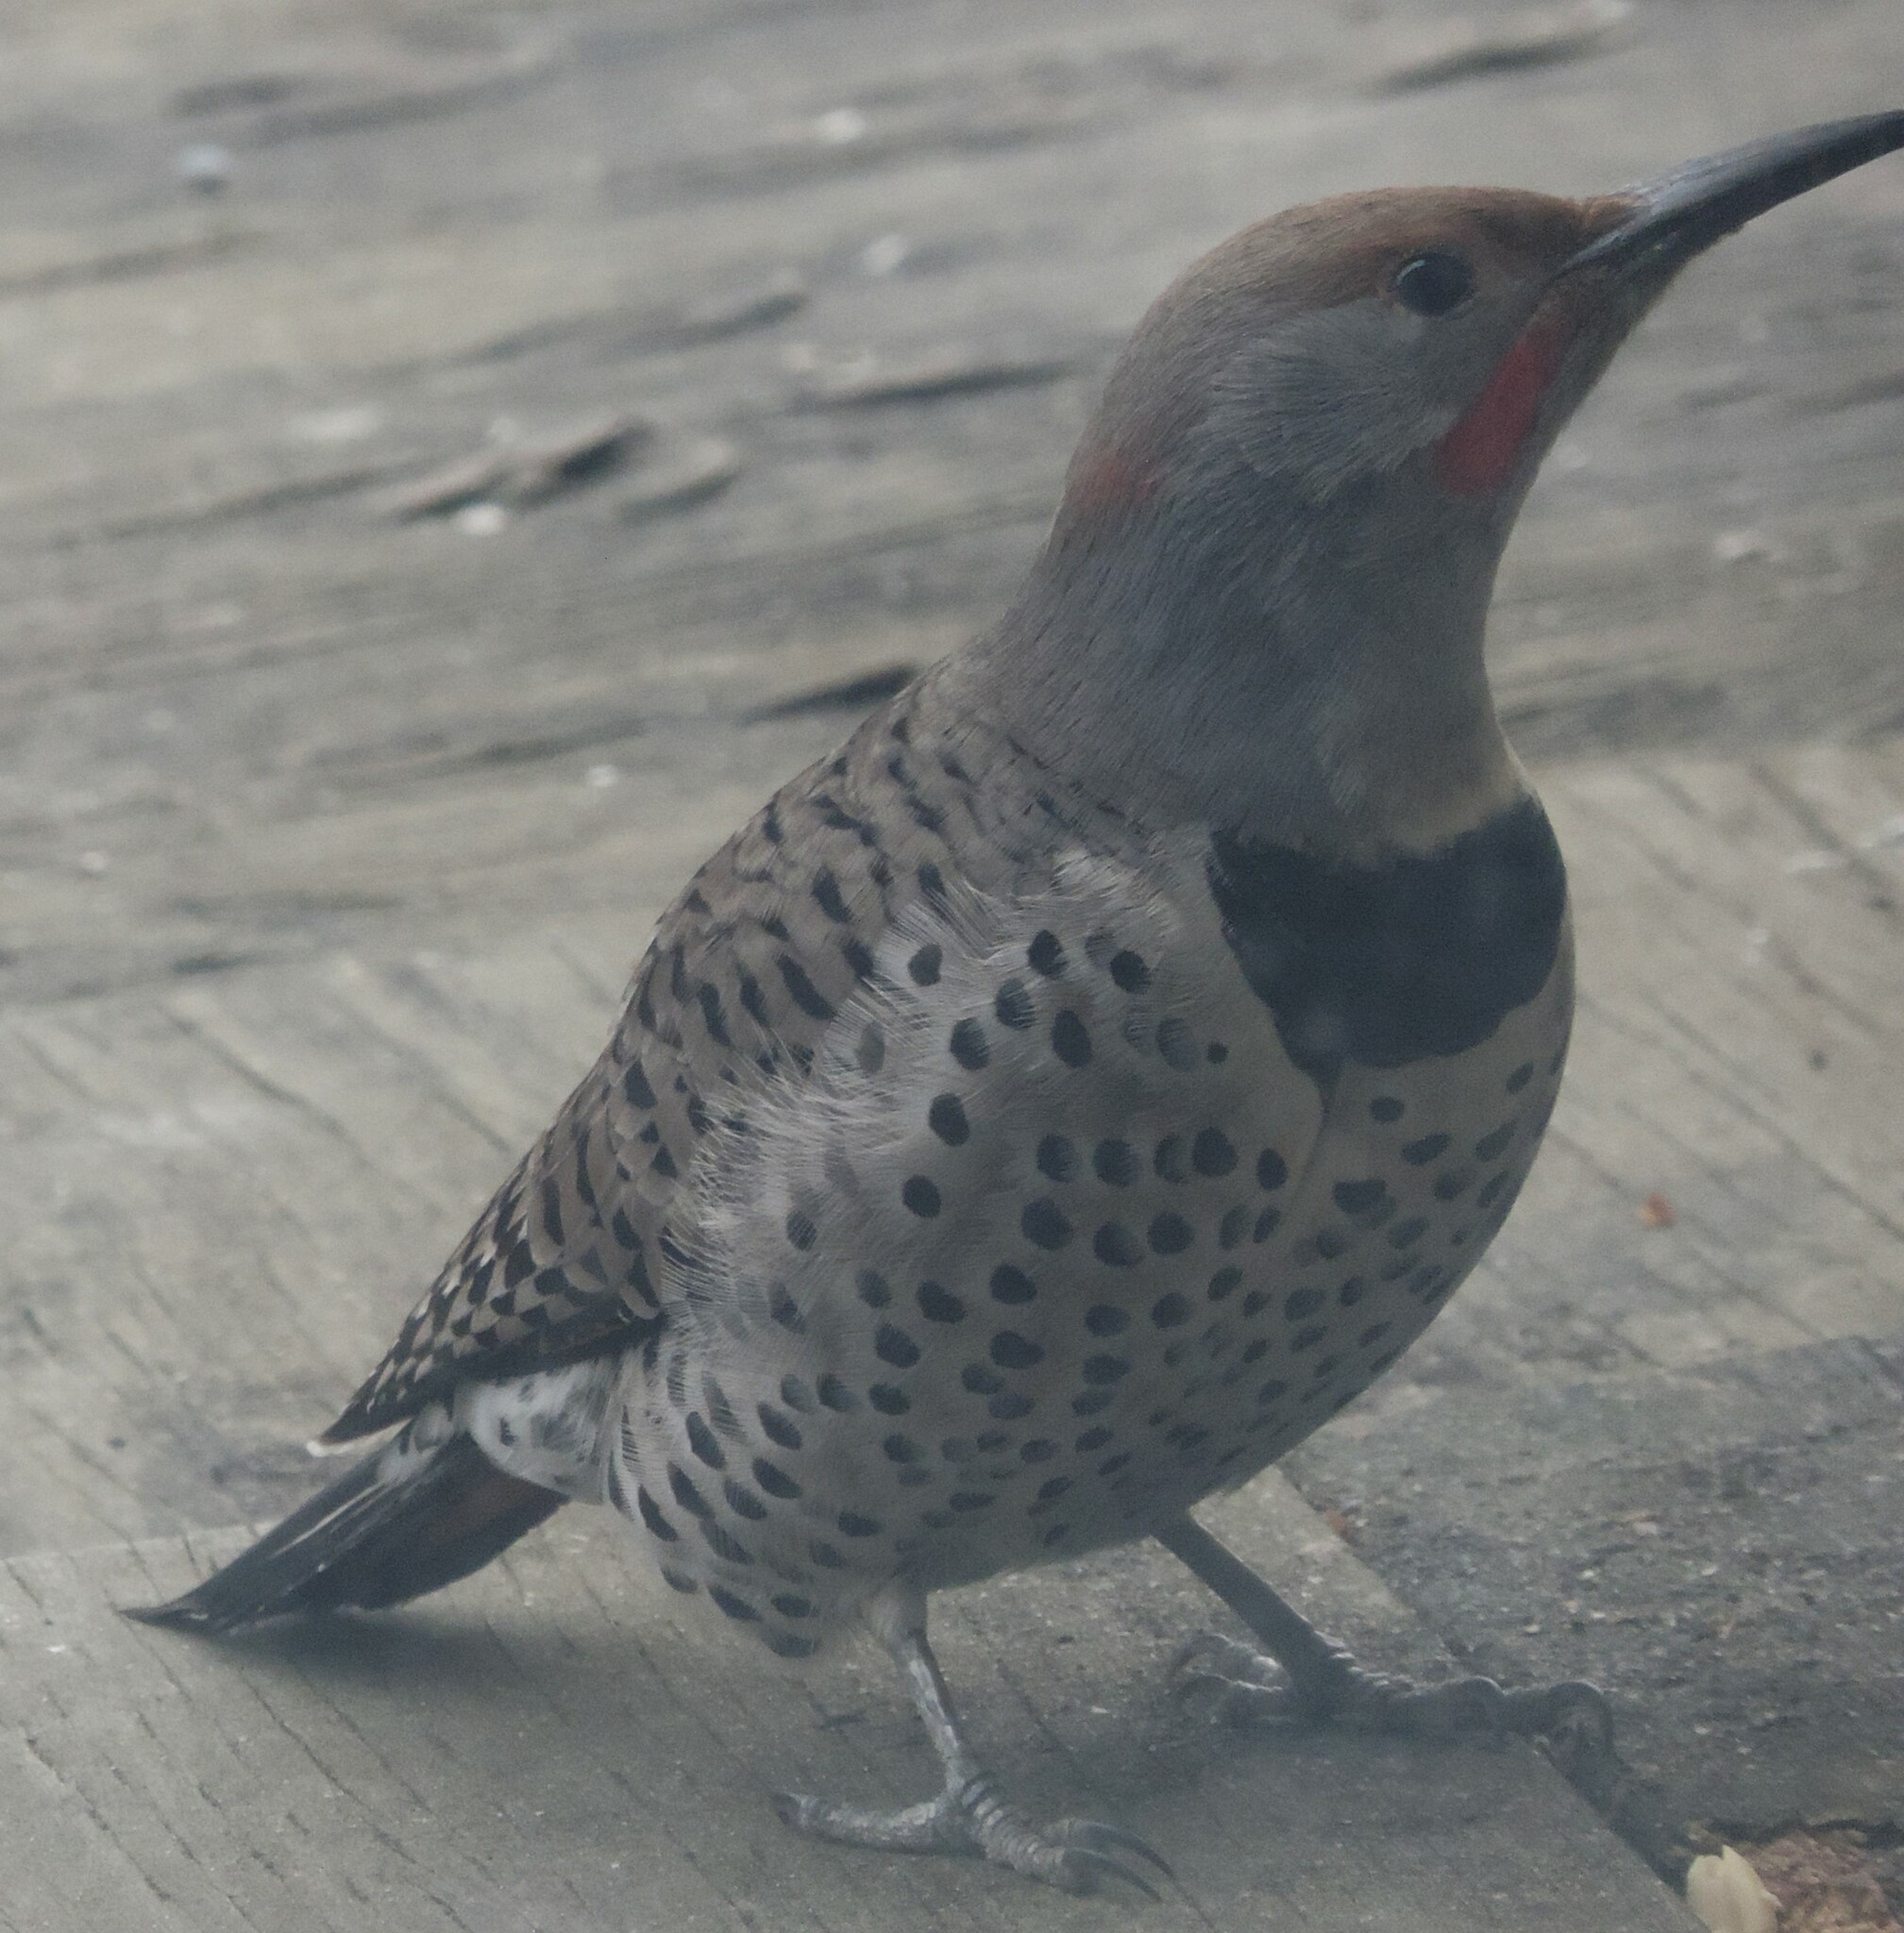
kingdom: Animalia
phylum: Chordata
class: Aves
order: Piciformes
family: Picidae
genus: Colaptes
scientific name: Colaptes
